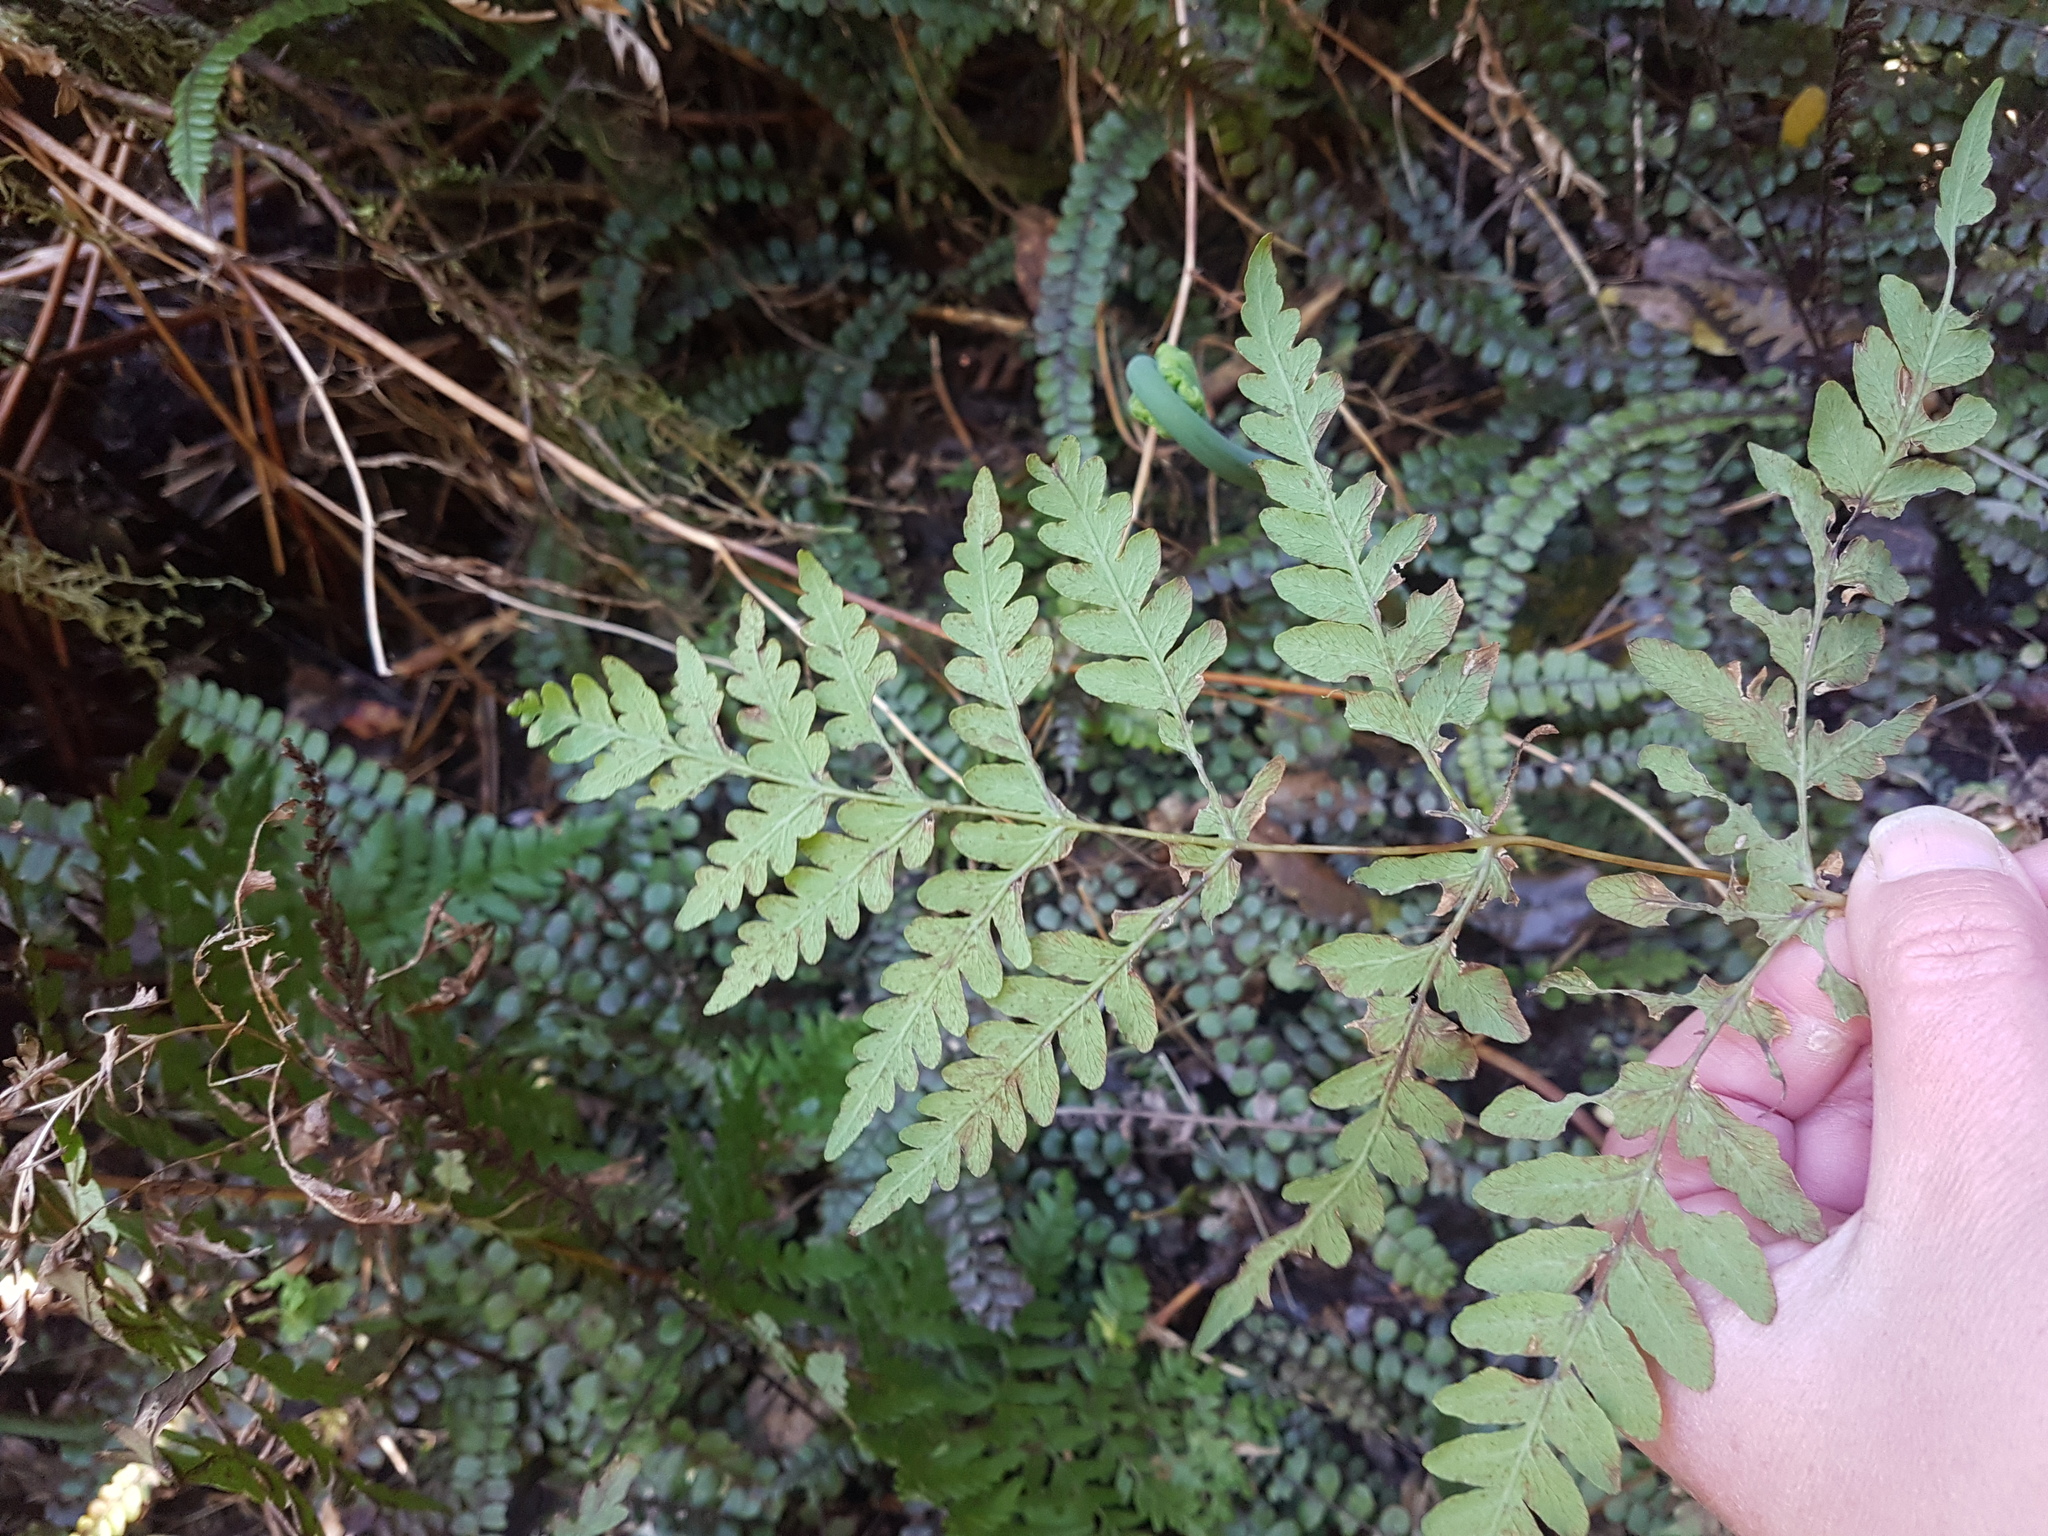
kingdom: Plantae
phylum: Tracheophyta
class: Polypodiopsida
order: Polypodiales
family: Dennstaedtiaceae
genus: Histiopteris
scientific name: Histiopteris incisa
